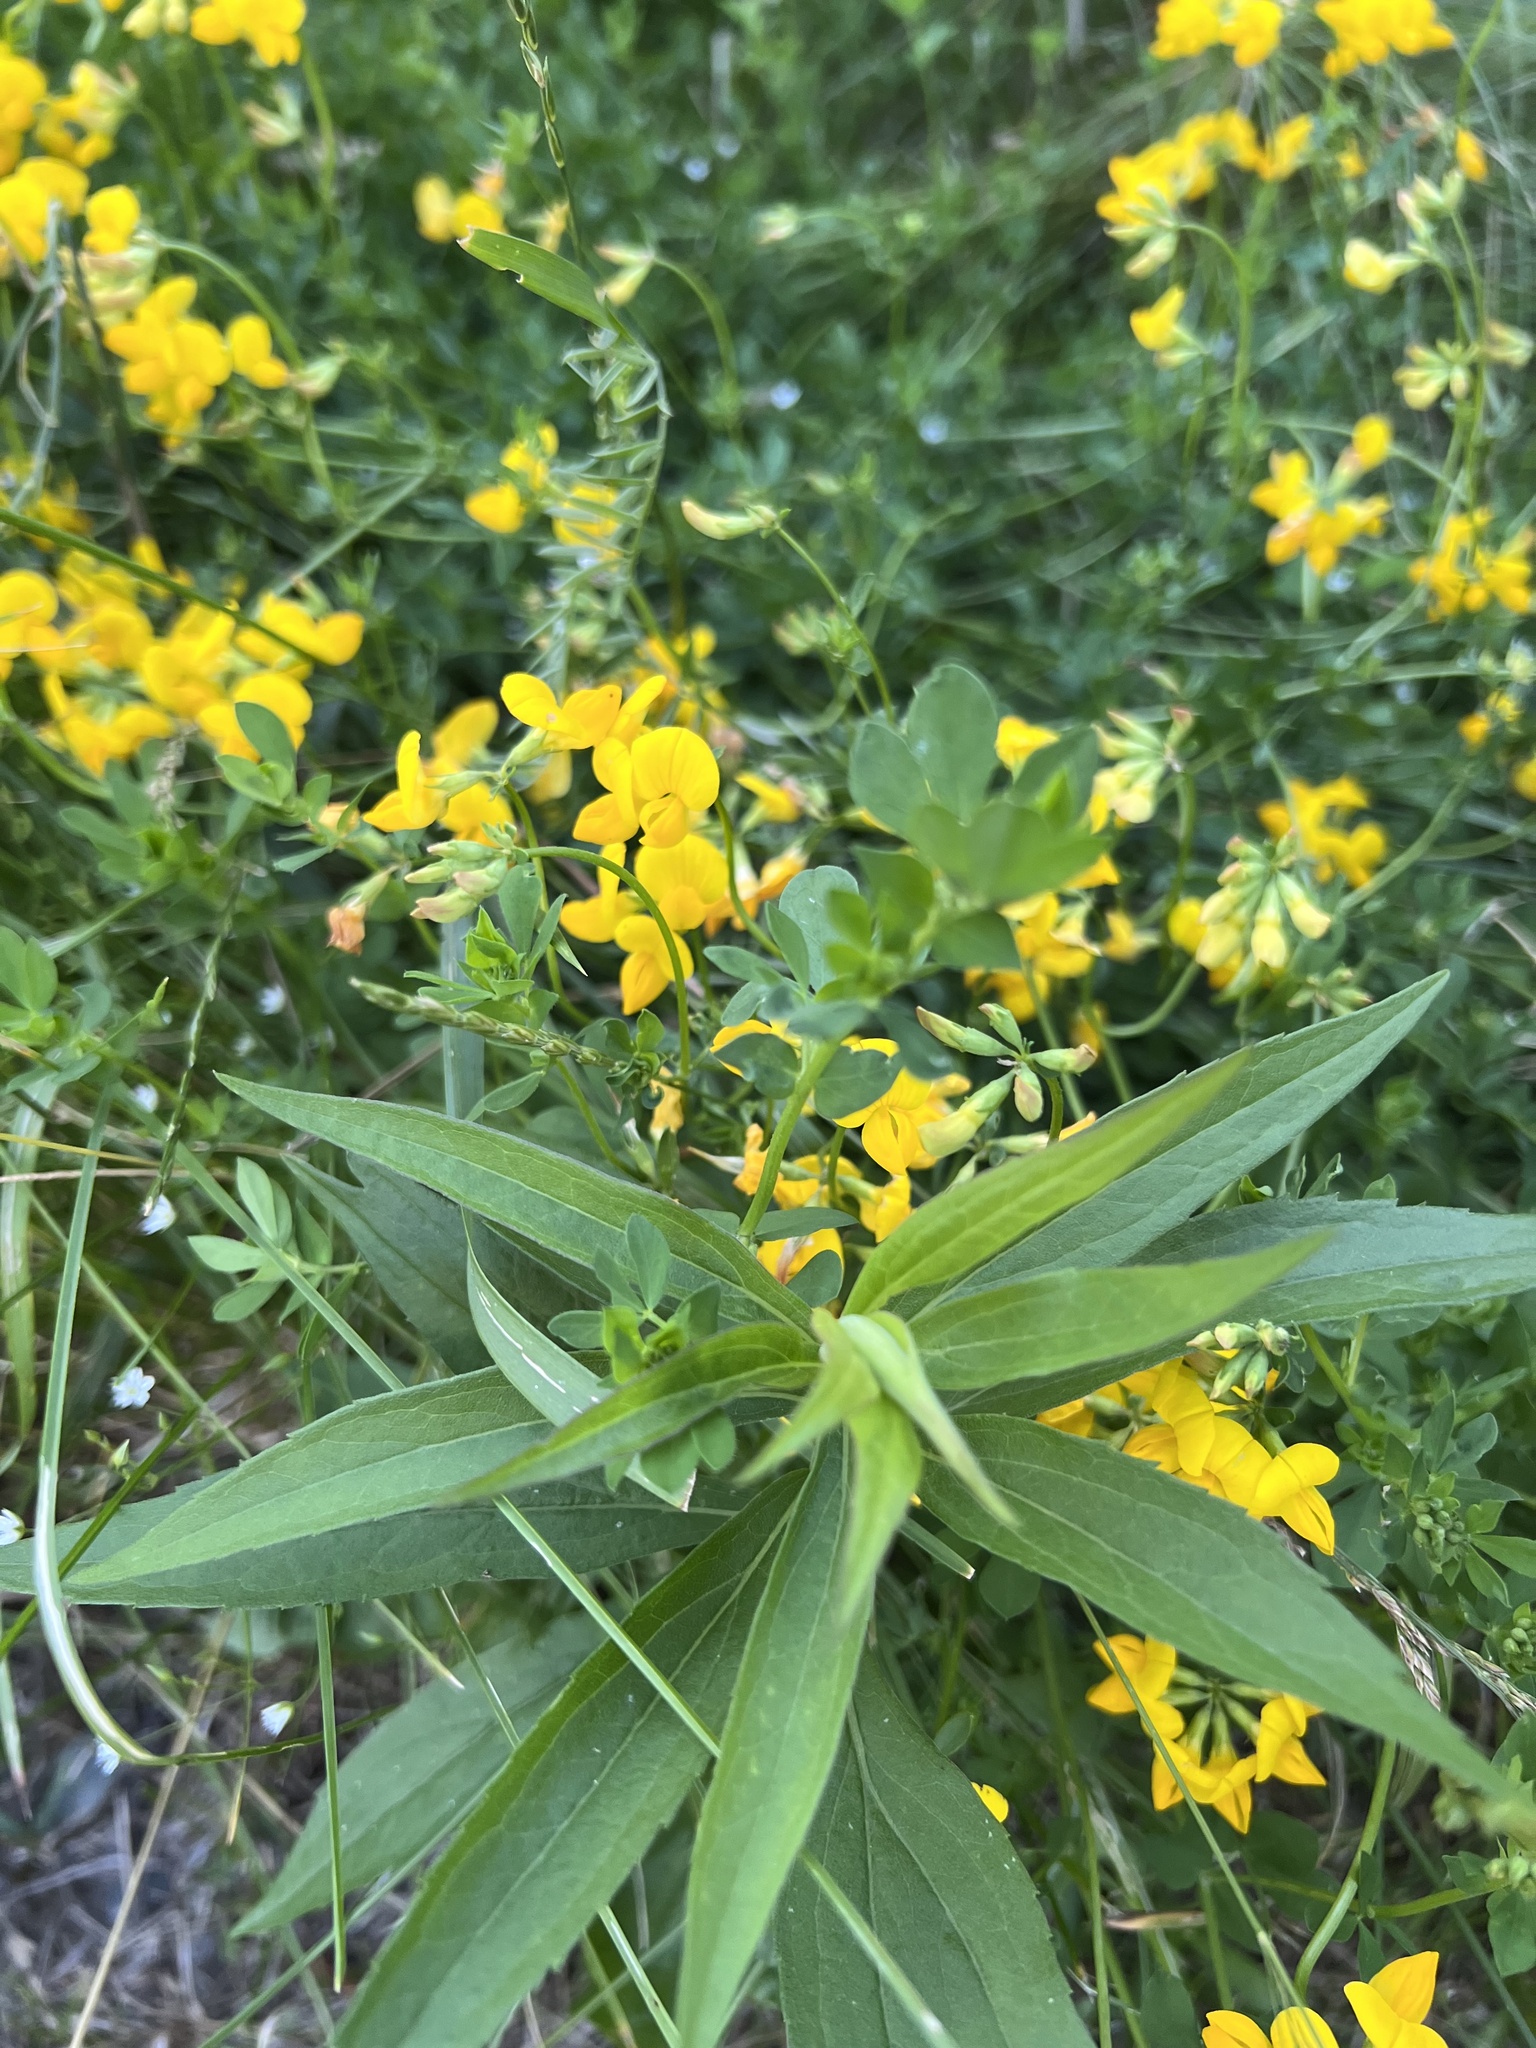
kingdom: Plantae
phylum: Tracheophyta
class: Magnoliopsida
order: Fabales
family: Fabaceae
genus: Lotus
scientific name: Lotus corniculatus
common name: Common bird's-foot-trefoil
